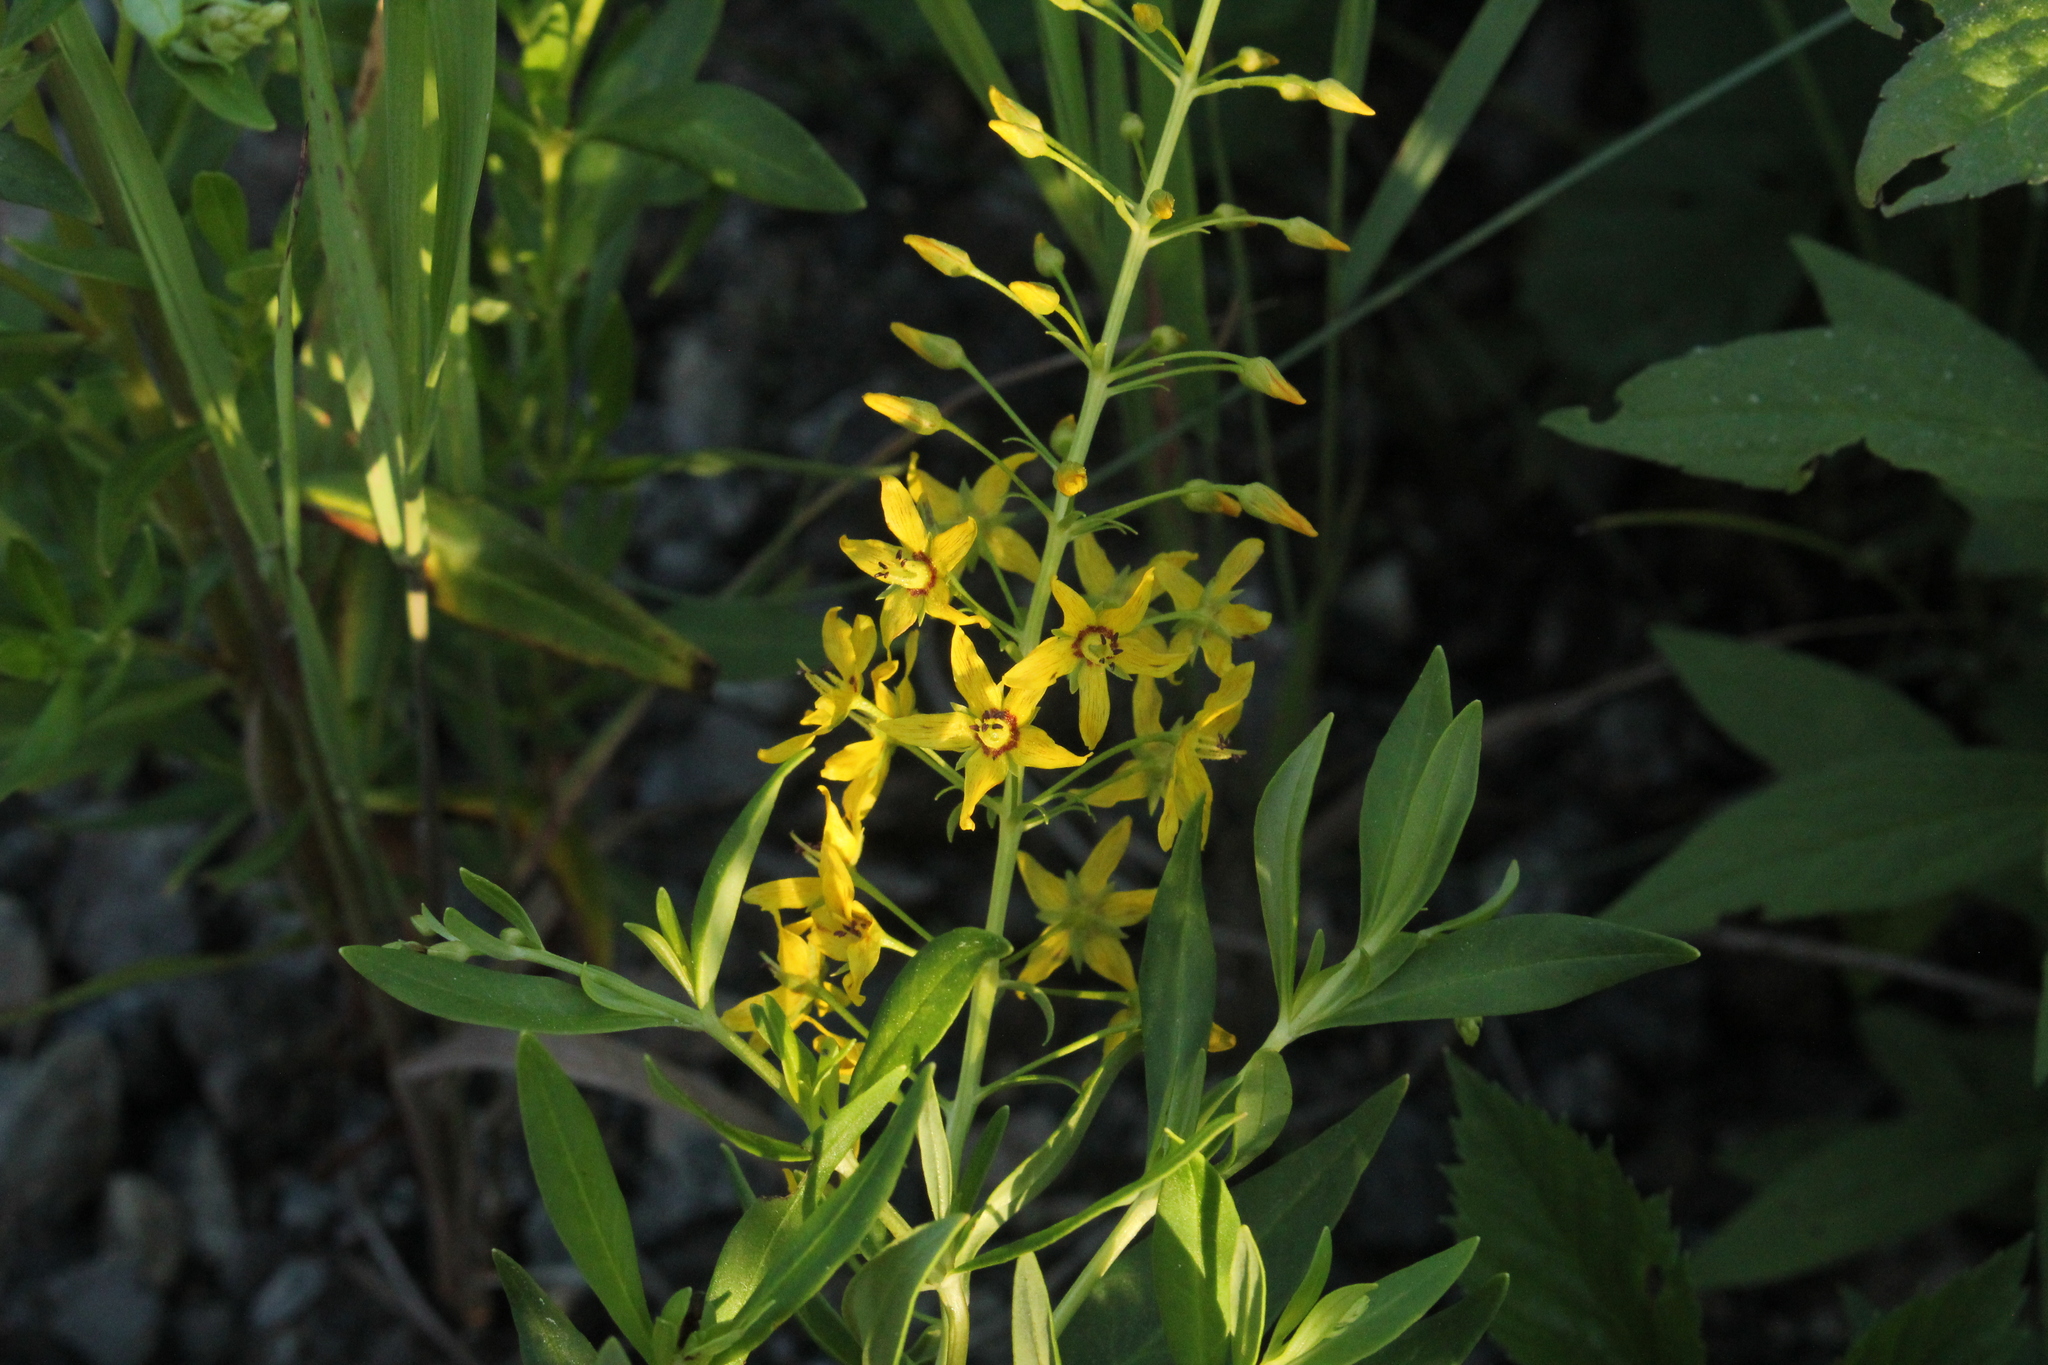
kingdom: Plantae
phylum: Tracheophyta
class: Magnoliopsida
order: Ericales
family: Primulaceae
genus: Lysimachia
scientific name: Lysimachia terrestris
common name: Lake loosestrife
